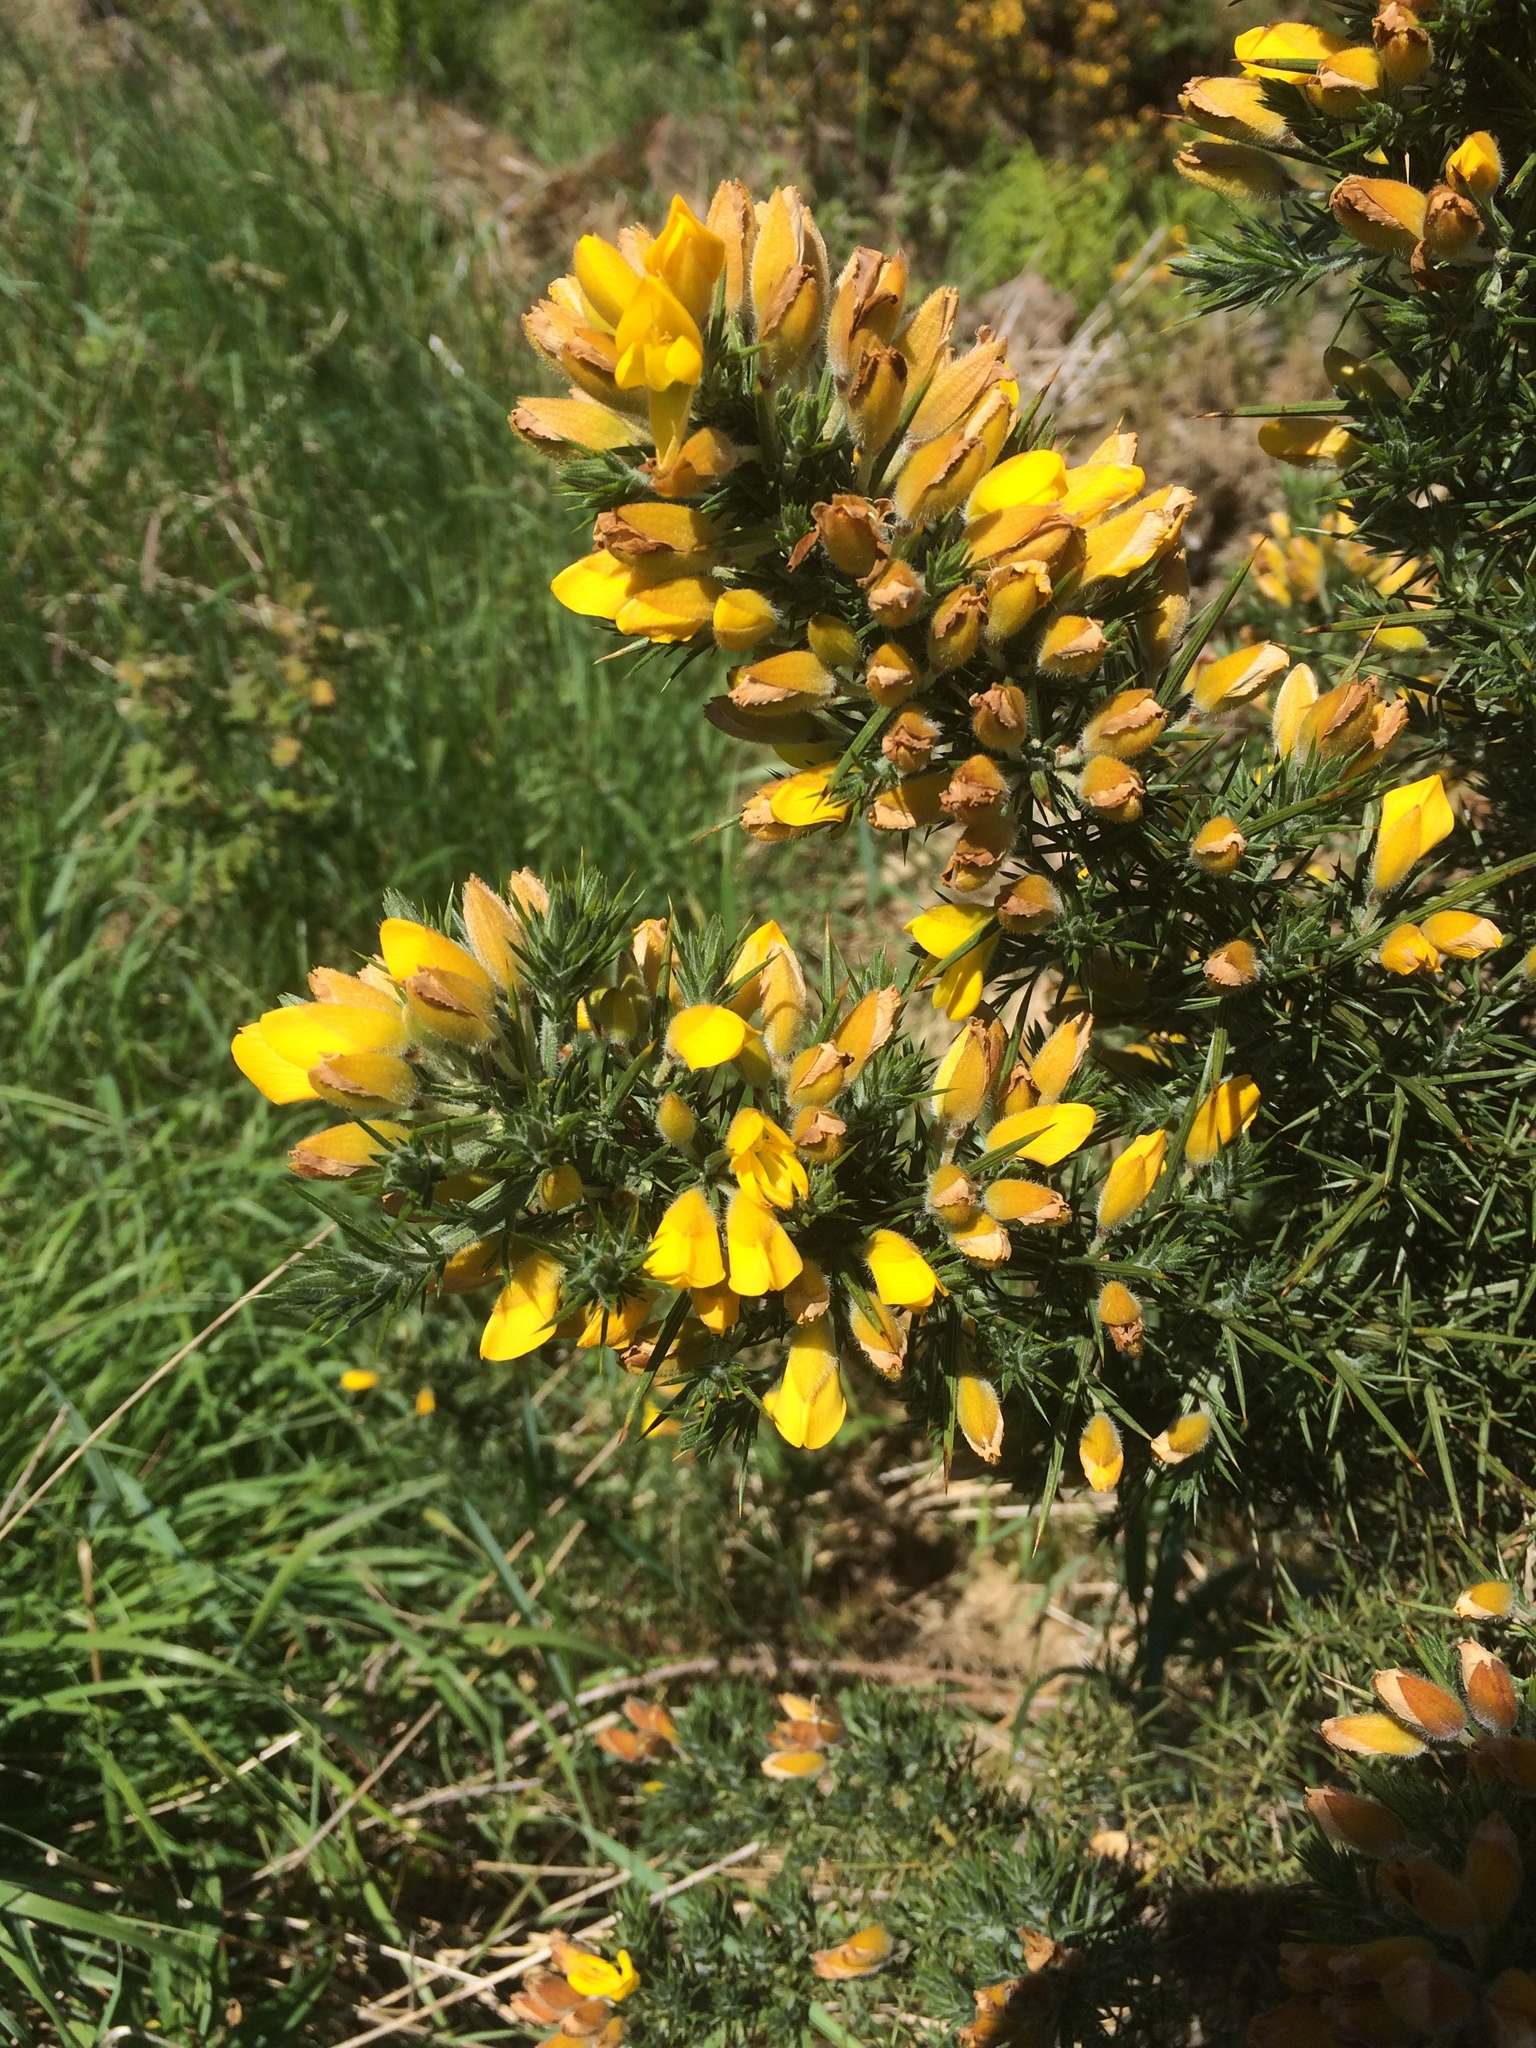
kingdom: Plantae
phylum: Tracheophyta
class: Magnoliopsida
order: Fabales
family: Fabaceae
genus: Ulex
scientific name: Ulex europaeus
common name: Common gorse
